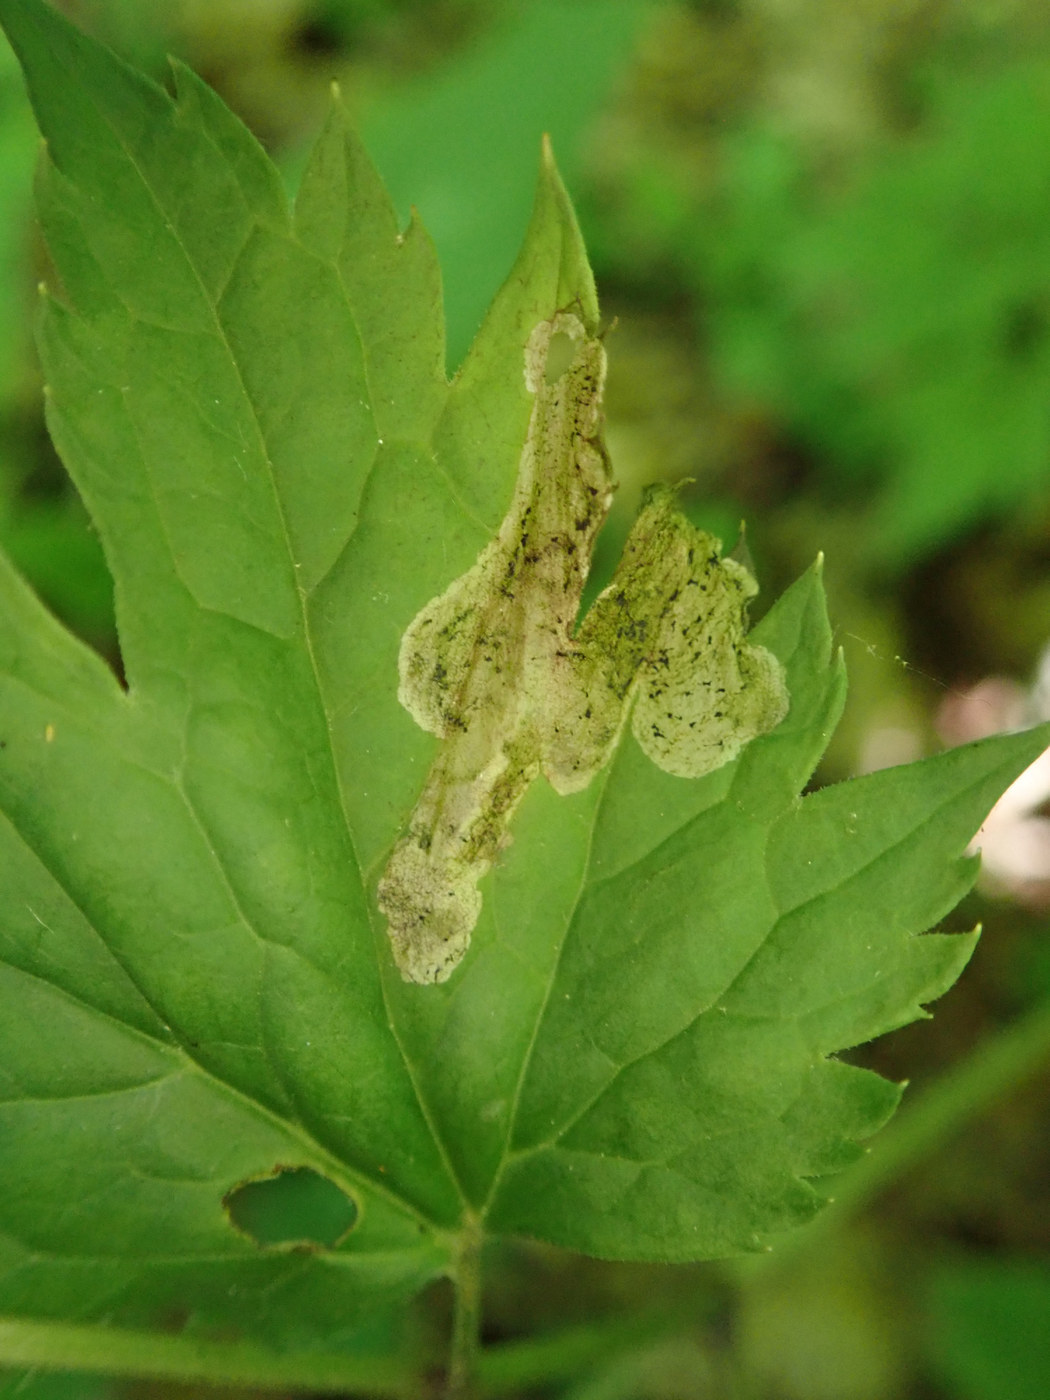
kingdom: Animalia
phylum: Arthropoda
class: Insecta
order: Diptera
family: Agromyzidae
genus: Phytomyza
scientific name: Phytomyza
